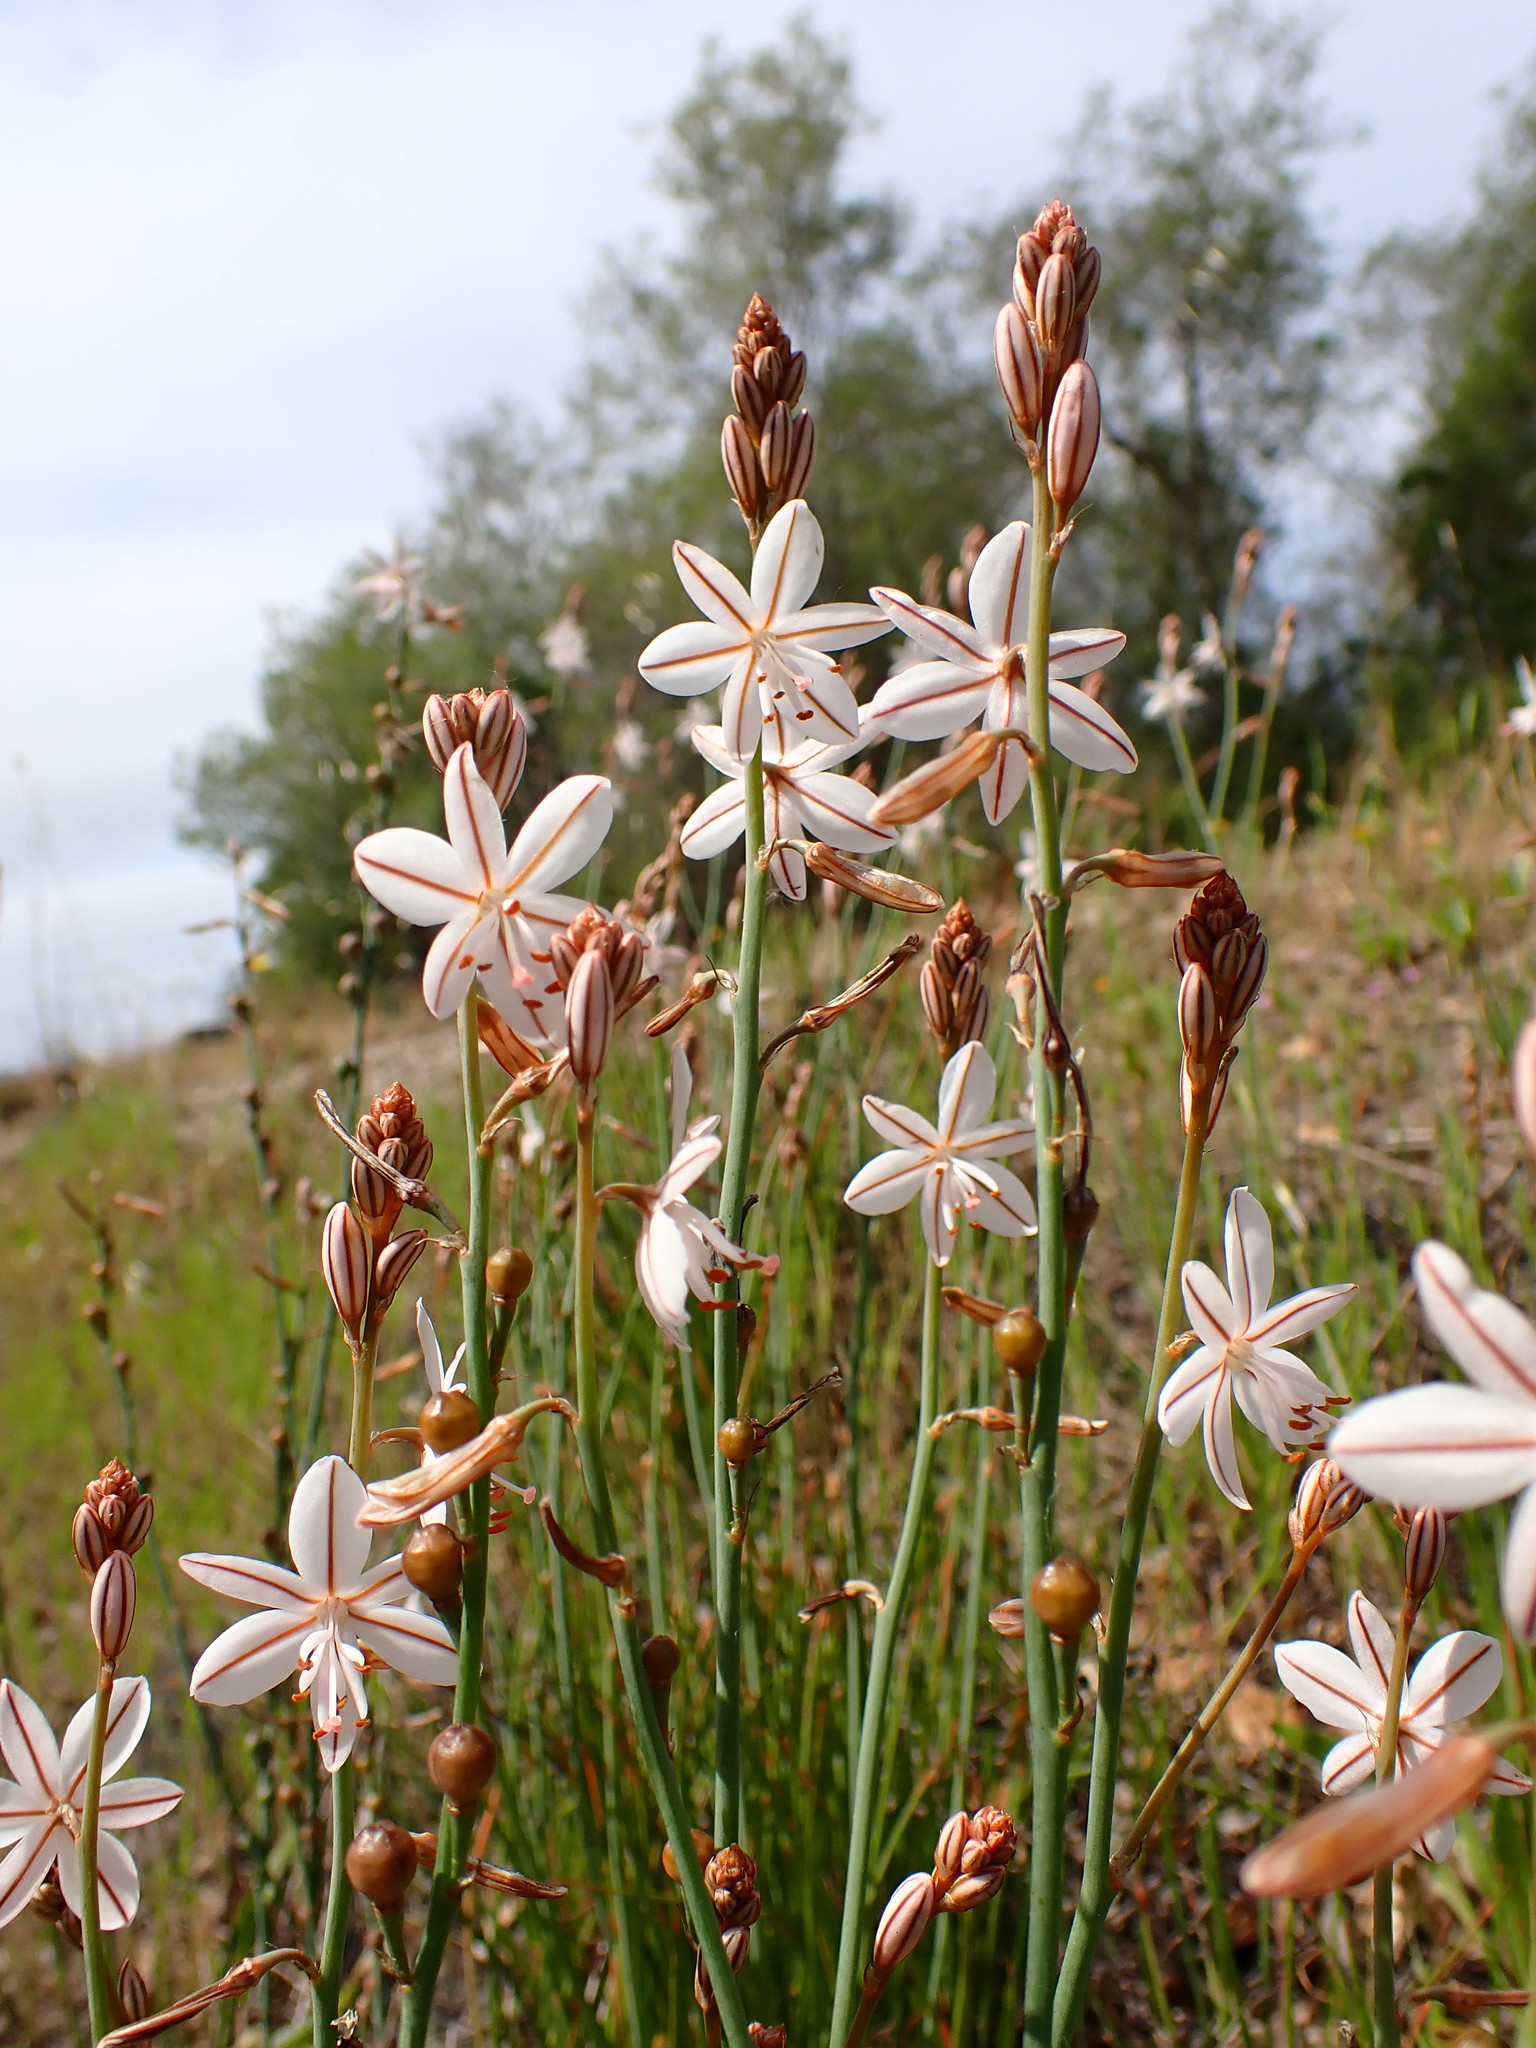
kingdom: Plantae
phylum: Tracheophyta
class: Liliopsida
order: Asparagales
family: Asphodelaceae
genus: Asphodelus
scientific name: Asphodelus fistulosus
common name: Onionweed
